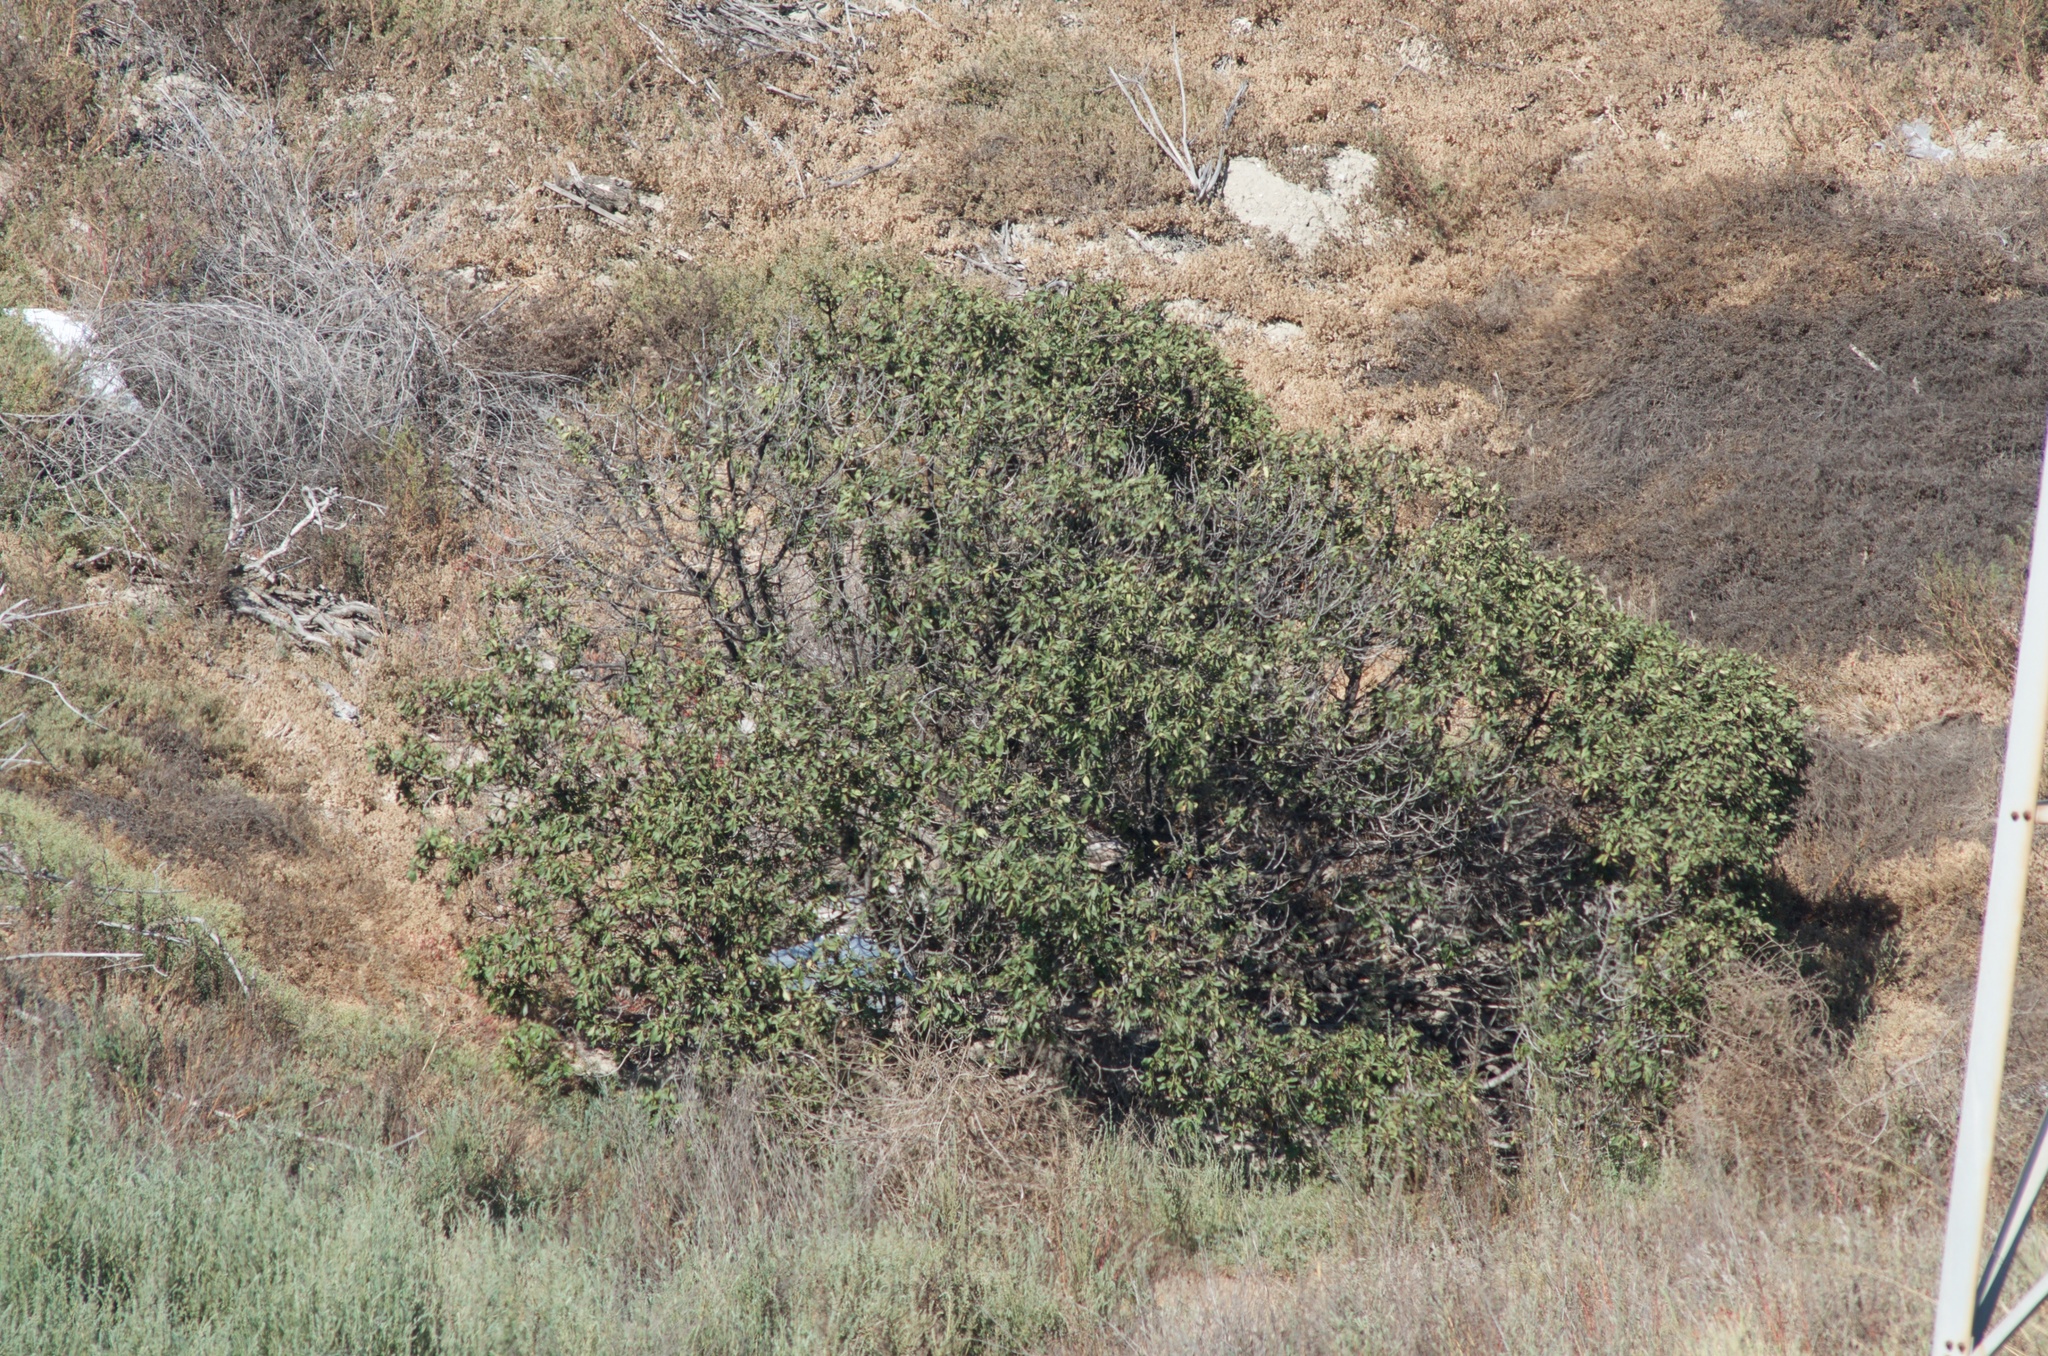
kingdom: Plantae
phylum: Tracheophyta
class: Magnoliopsida
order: Lamiales
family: Scrophulariaceae
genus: Myoporum
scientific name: Myoporum laetum
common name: Ngaio tree
